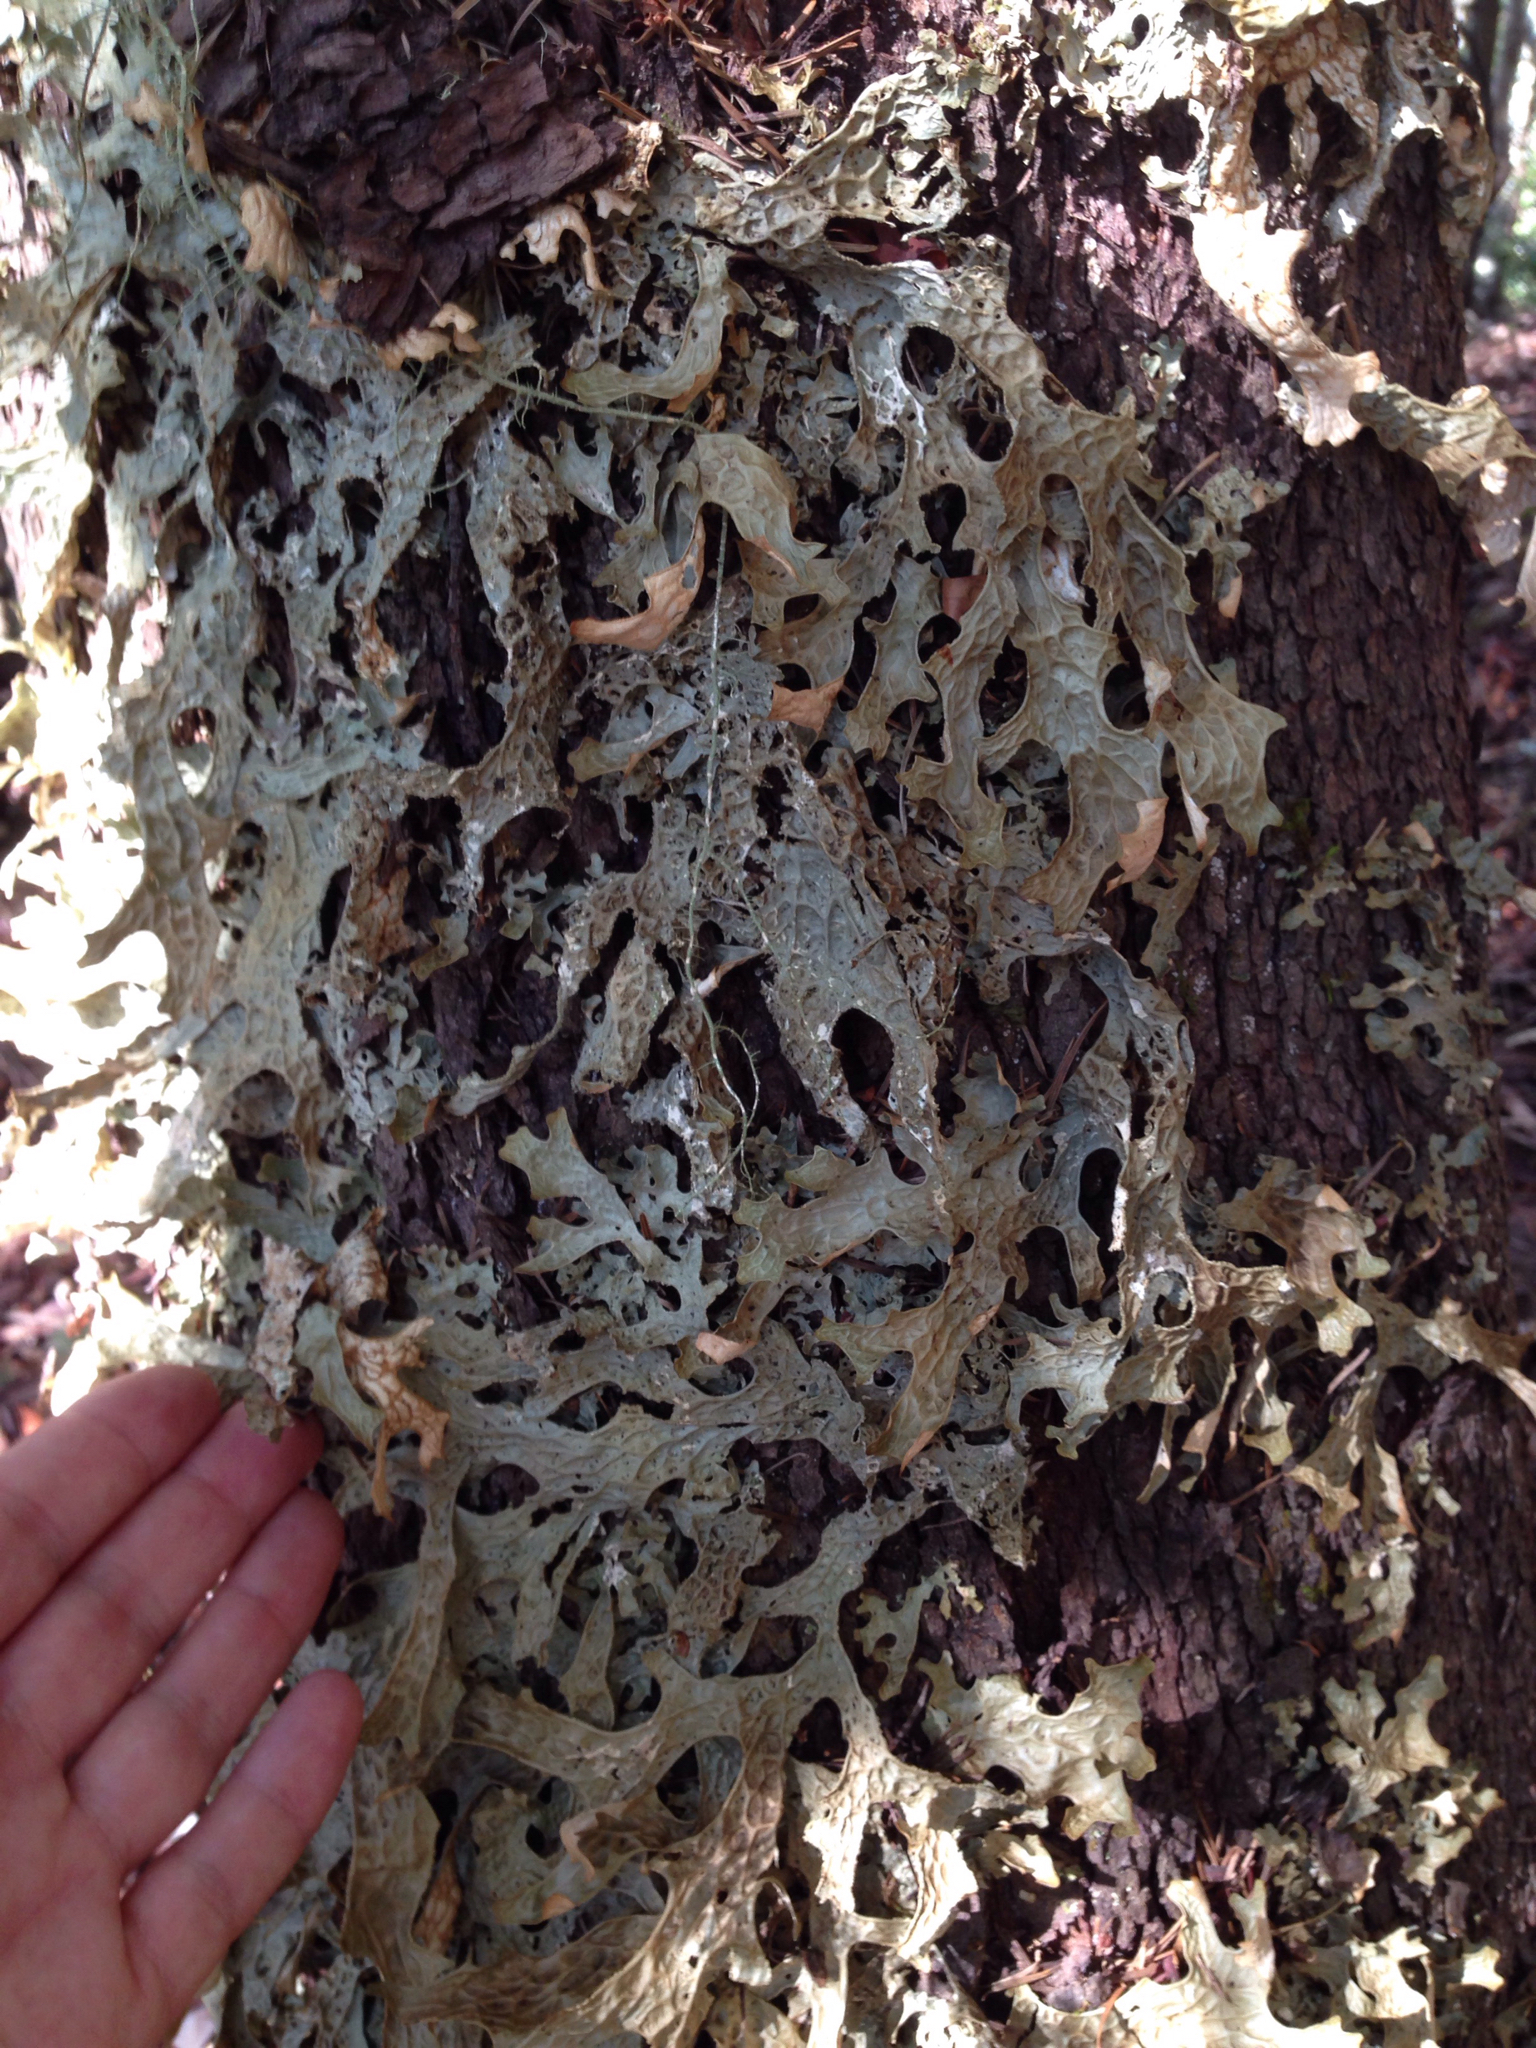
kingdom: Fungi
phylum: Ascomycota
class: Lecanoromycetes
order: Peltigerales
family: Lobariaceae
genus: Lobaria
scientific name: Lobaria pulmonaria
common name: Lungwort
